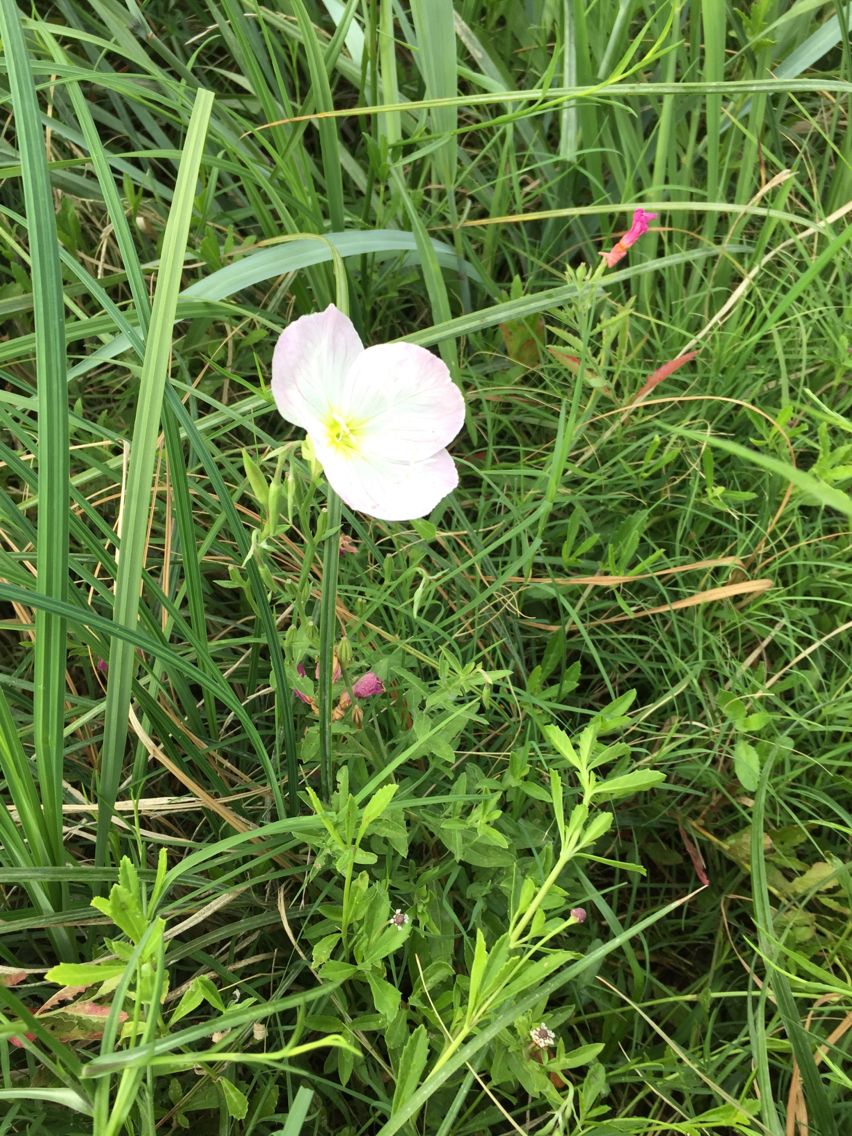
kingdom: Plantae
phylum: Tracheophyta
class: Magnoliopsida
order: Myrtales
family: Onagraceae
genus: Oenothera
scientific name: Oenothera speciosa
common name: White evening-primrose
